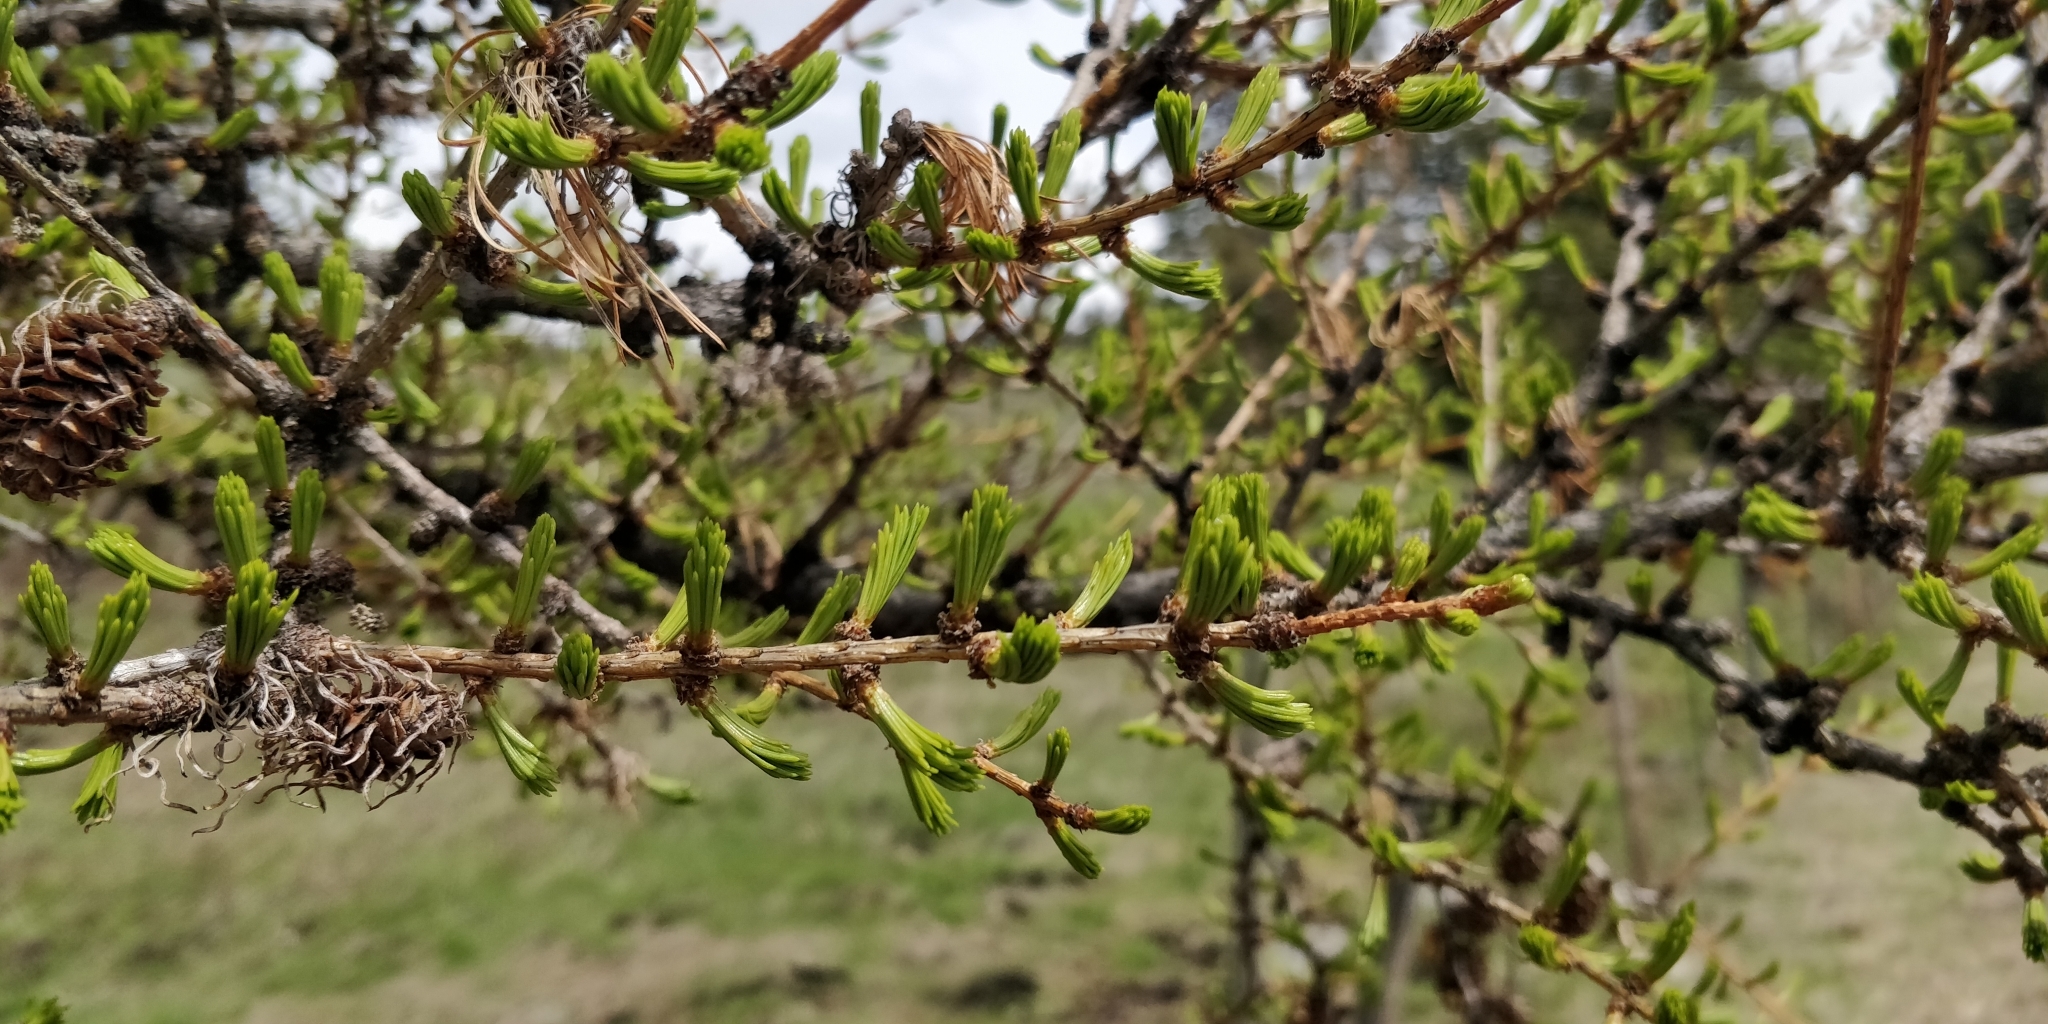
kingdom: Plantae
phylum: Tracheophyta
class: Pinopsida
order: Pinales
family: Pinaceae
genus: Larix
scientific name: Larix occidentalis
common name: Western larch
